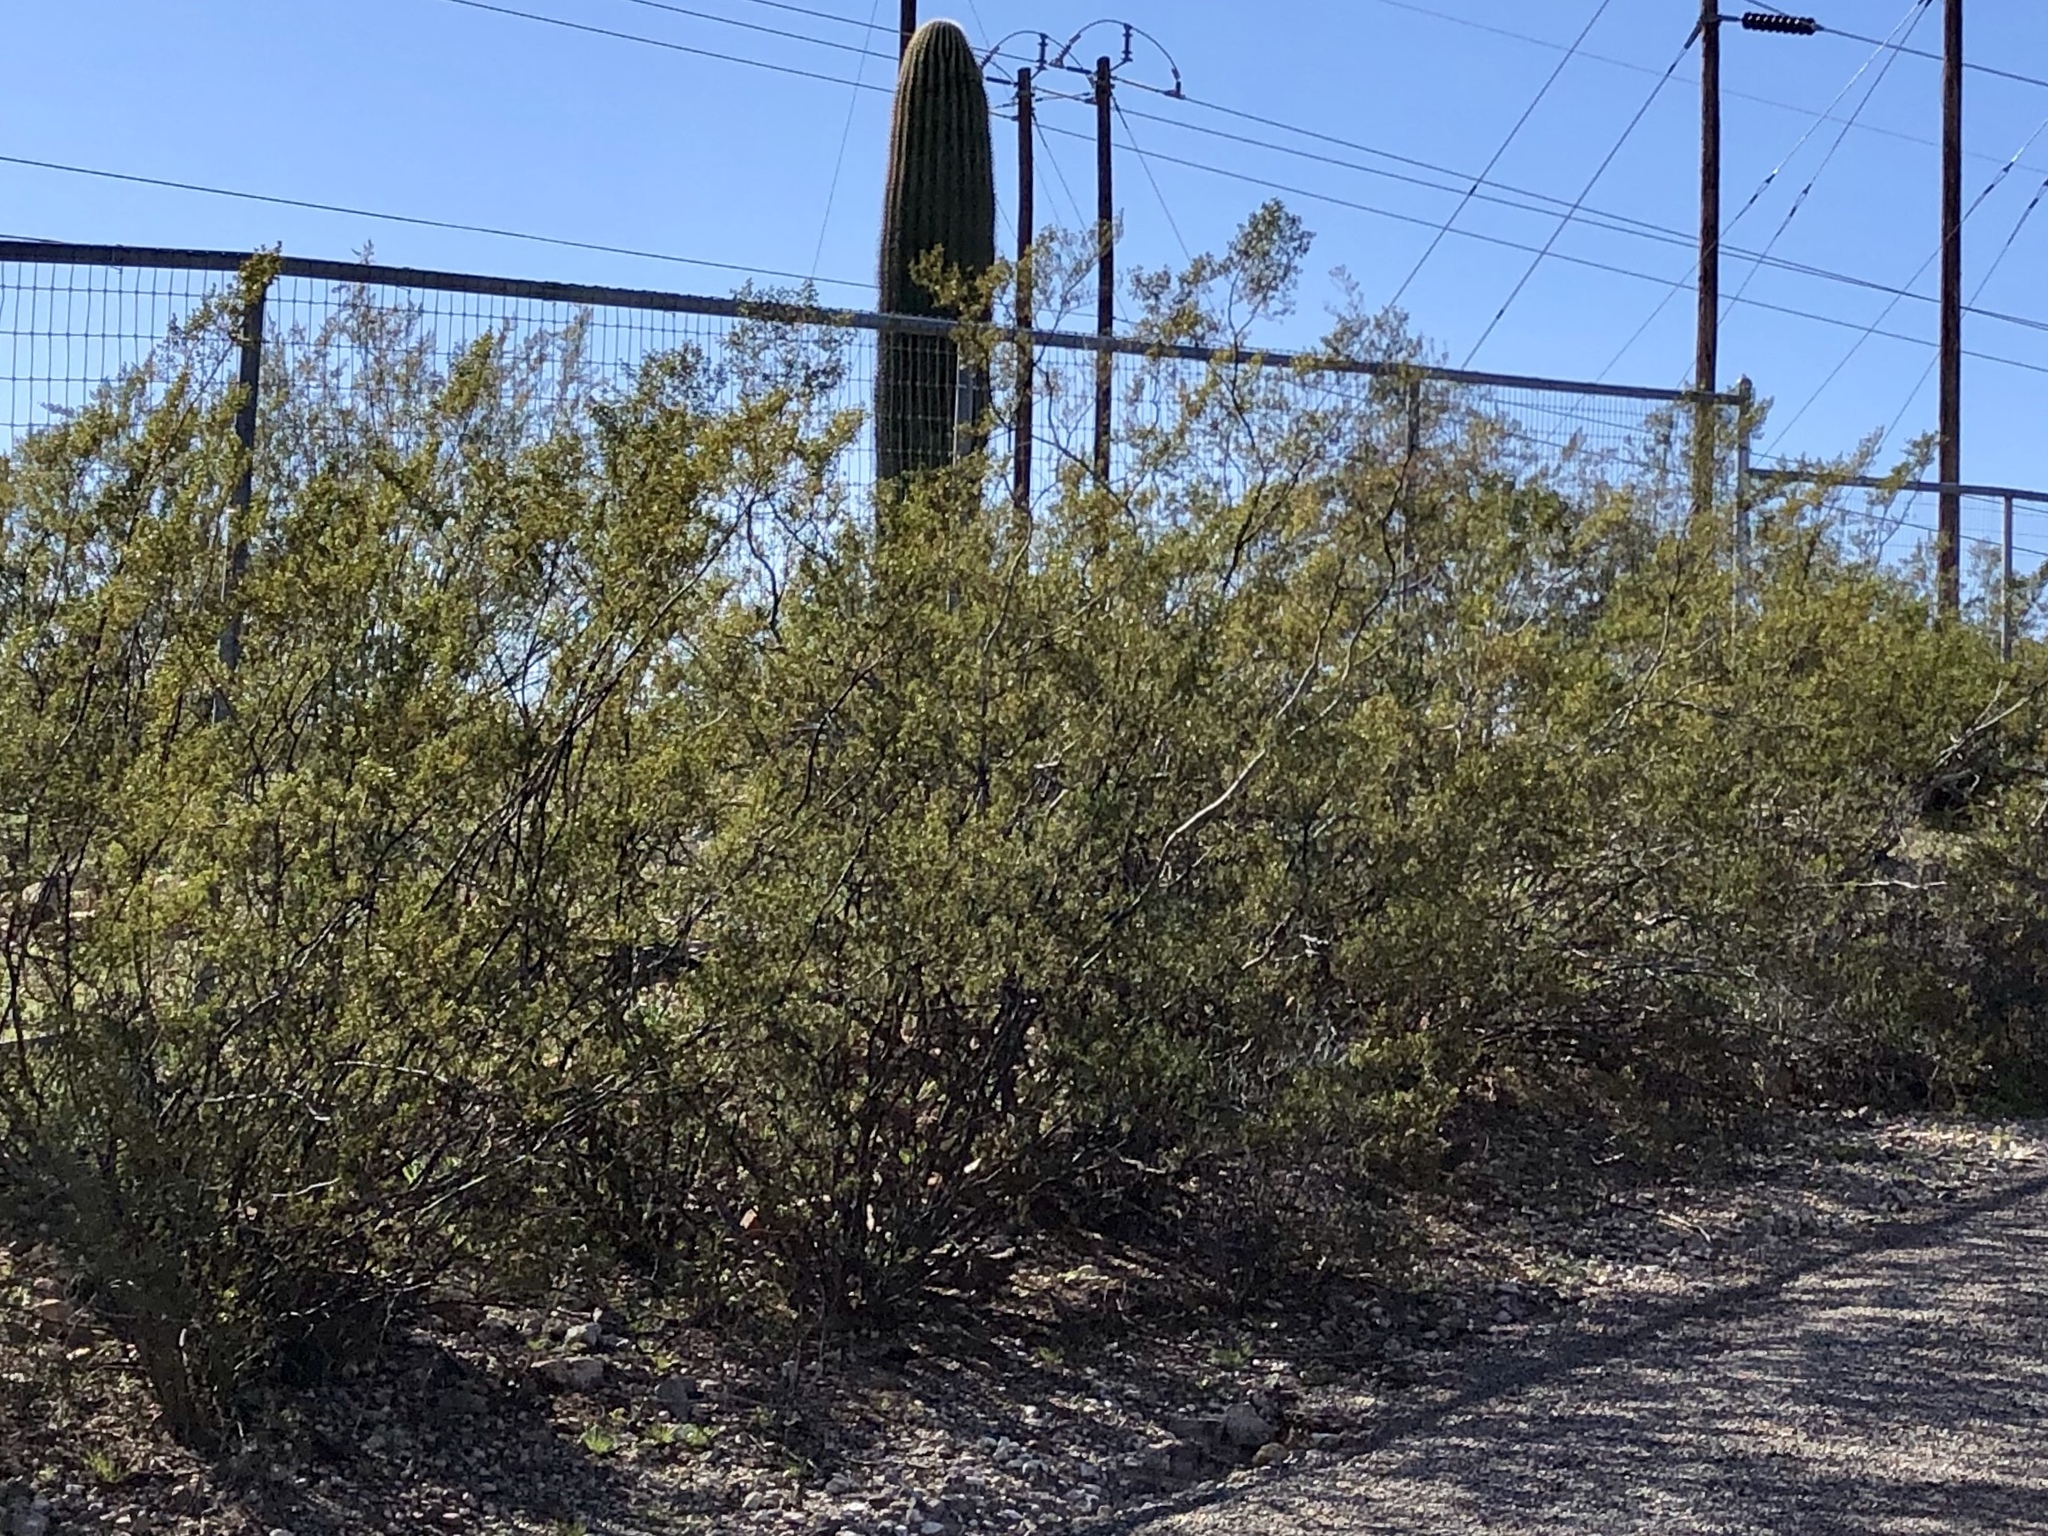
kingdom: Plantae
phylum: Tracheophyta
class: Magnoliopsida
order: Zygophyllales
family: Zygophyllaceae
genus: Larrea
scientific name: Larrea tridentata
